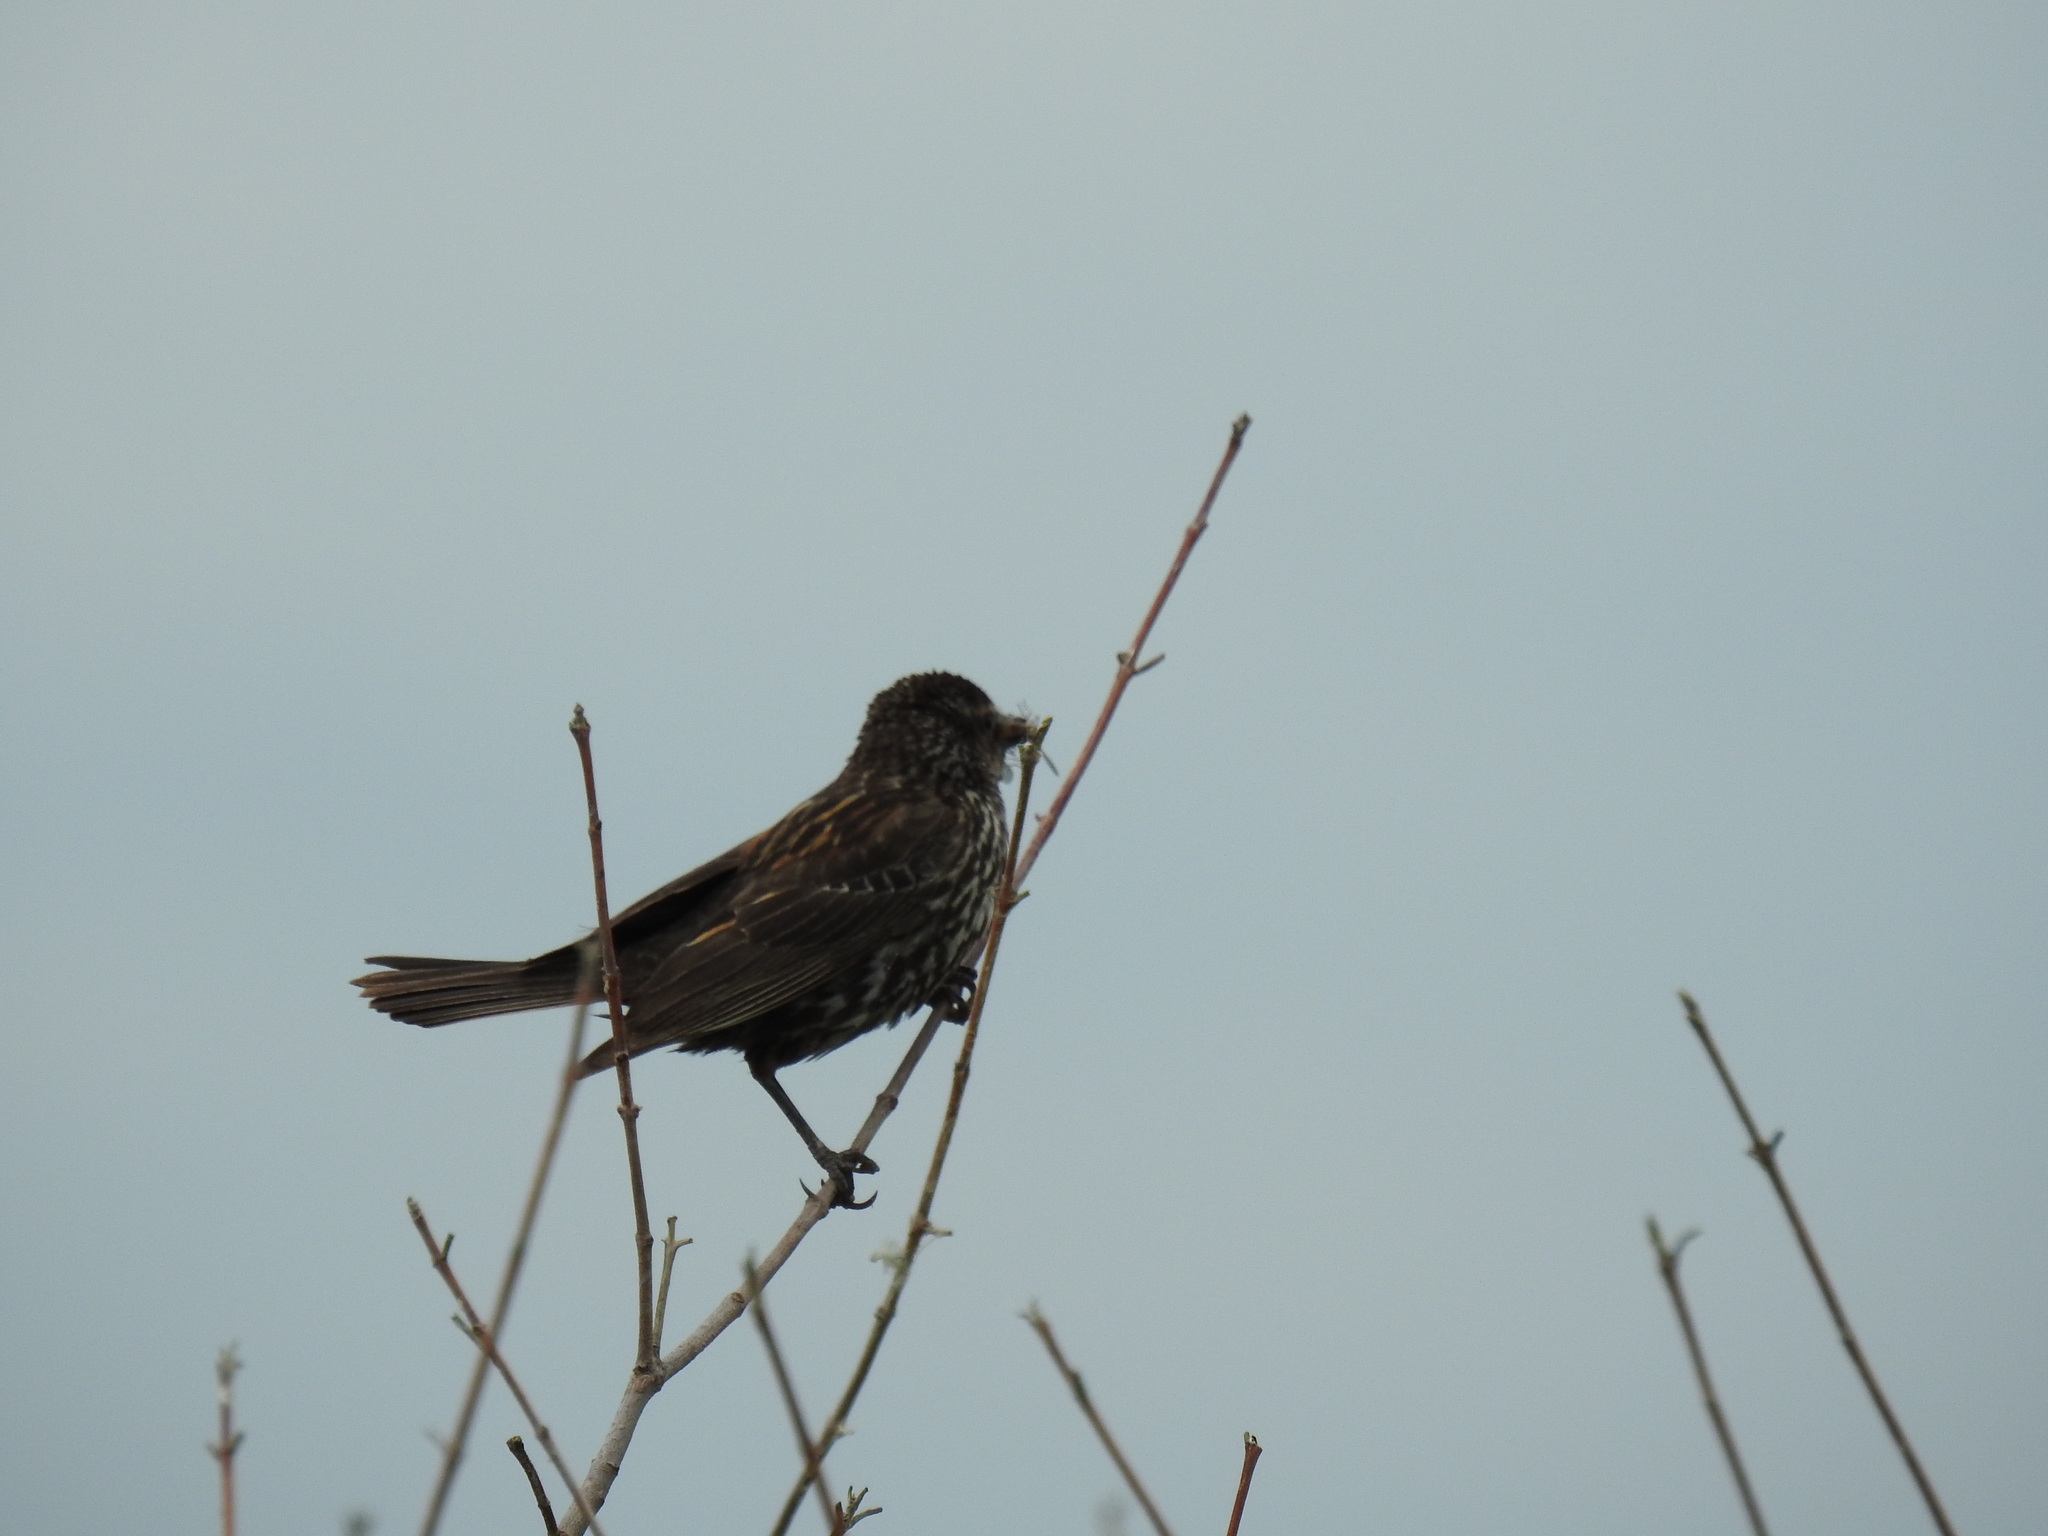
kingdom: Animalia
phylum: Chordata
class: Aves
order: Passeriformes
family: Icteridae
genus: Agelaius
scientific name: Agelaius phoeniceus
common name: Red-winged blackbird
